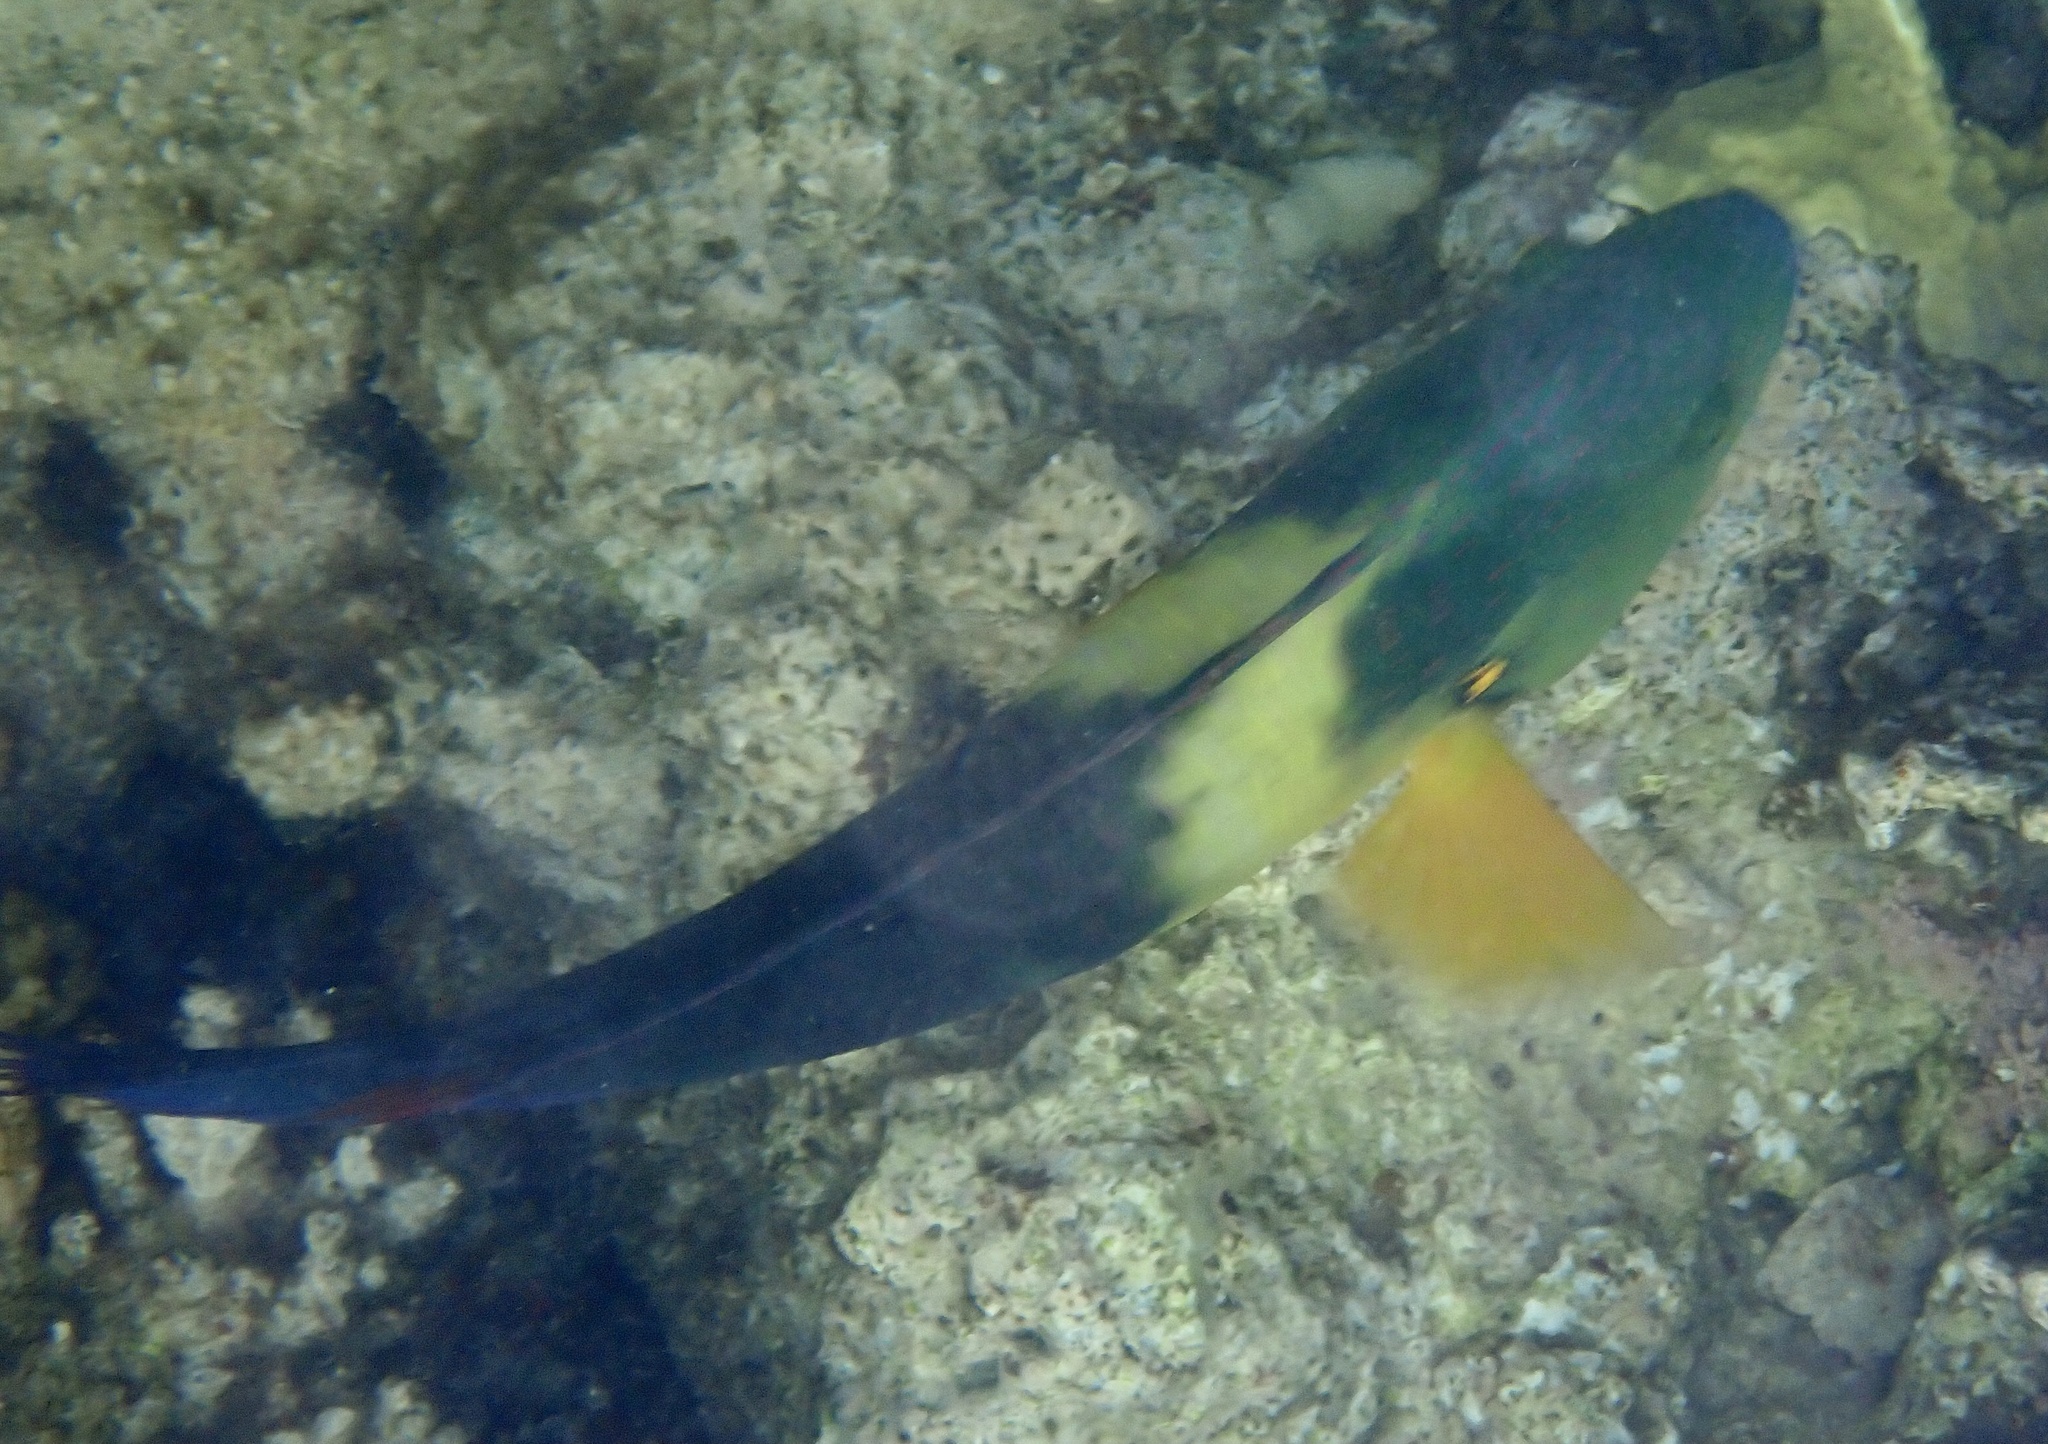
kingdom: Animalia
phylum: Chordata
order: Perciformes
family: Labridae
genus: Cheilinus
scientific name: Cheilinus lunulatus
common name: Broomtail wrasse
